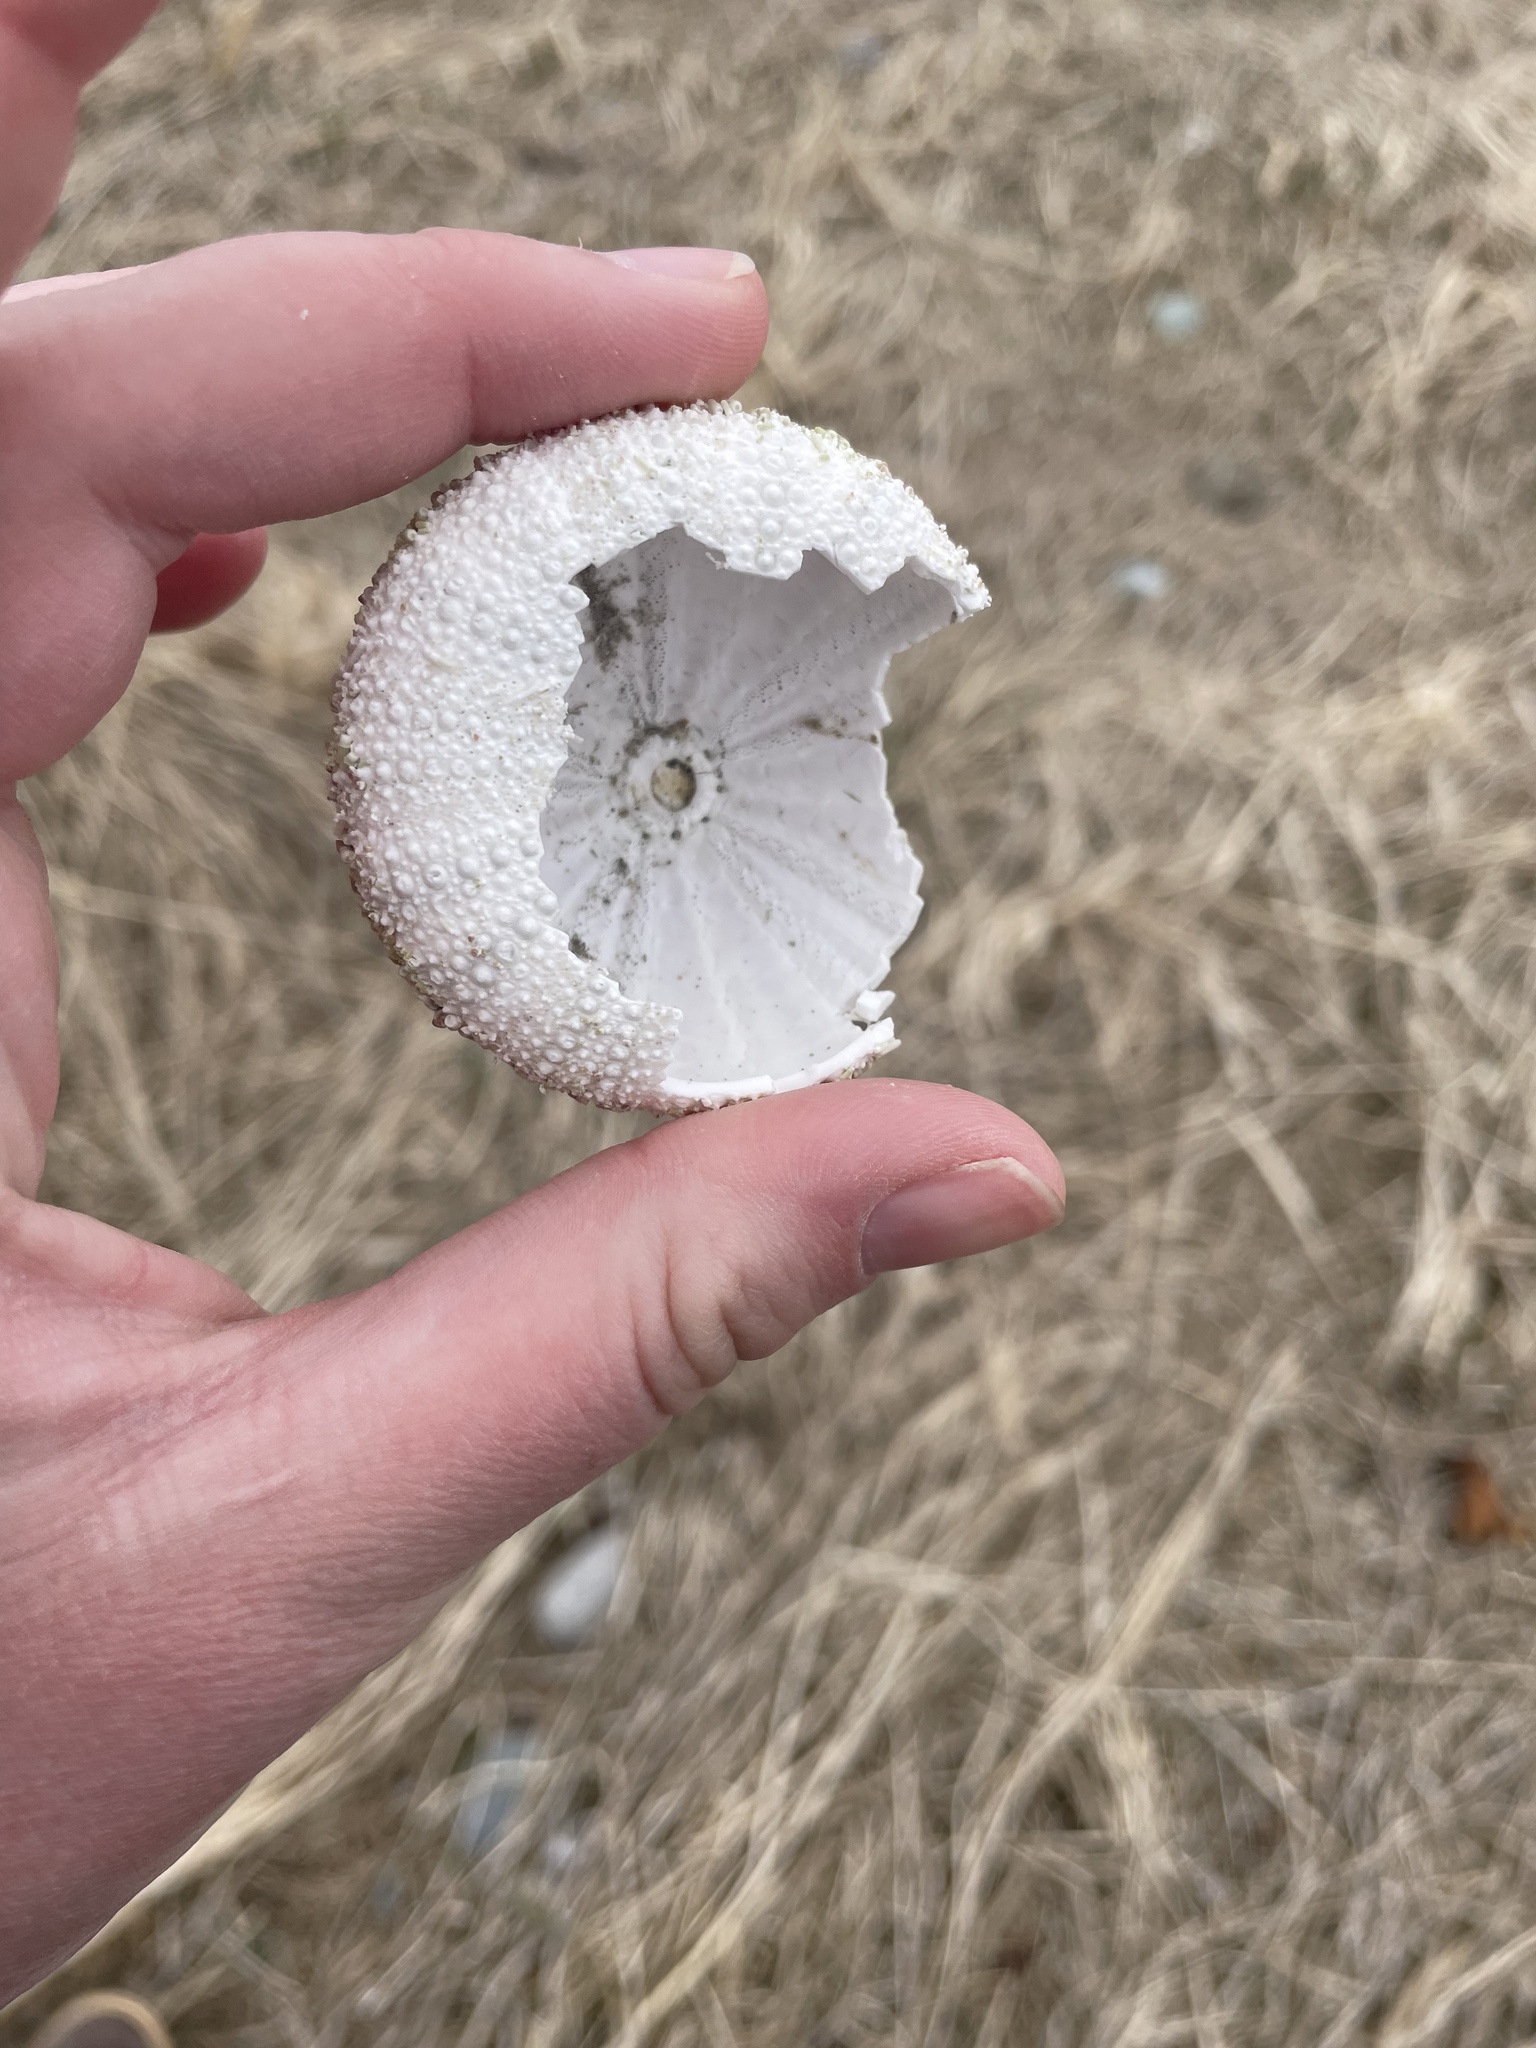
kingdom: Animalia
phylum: Echinodermata
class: Echinoidea
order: Camarodonta
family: Strongylocentrotidae
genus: Strongylocentrotus
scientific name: Strongylocentrotus droebachiensis
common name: Northern sea urchin
